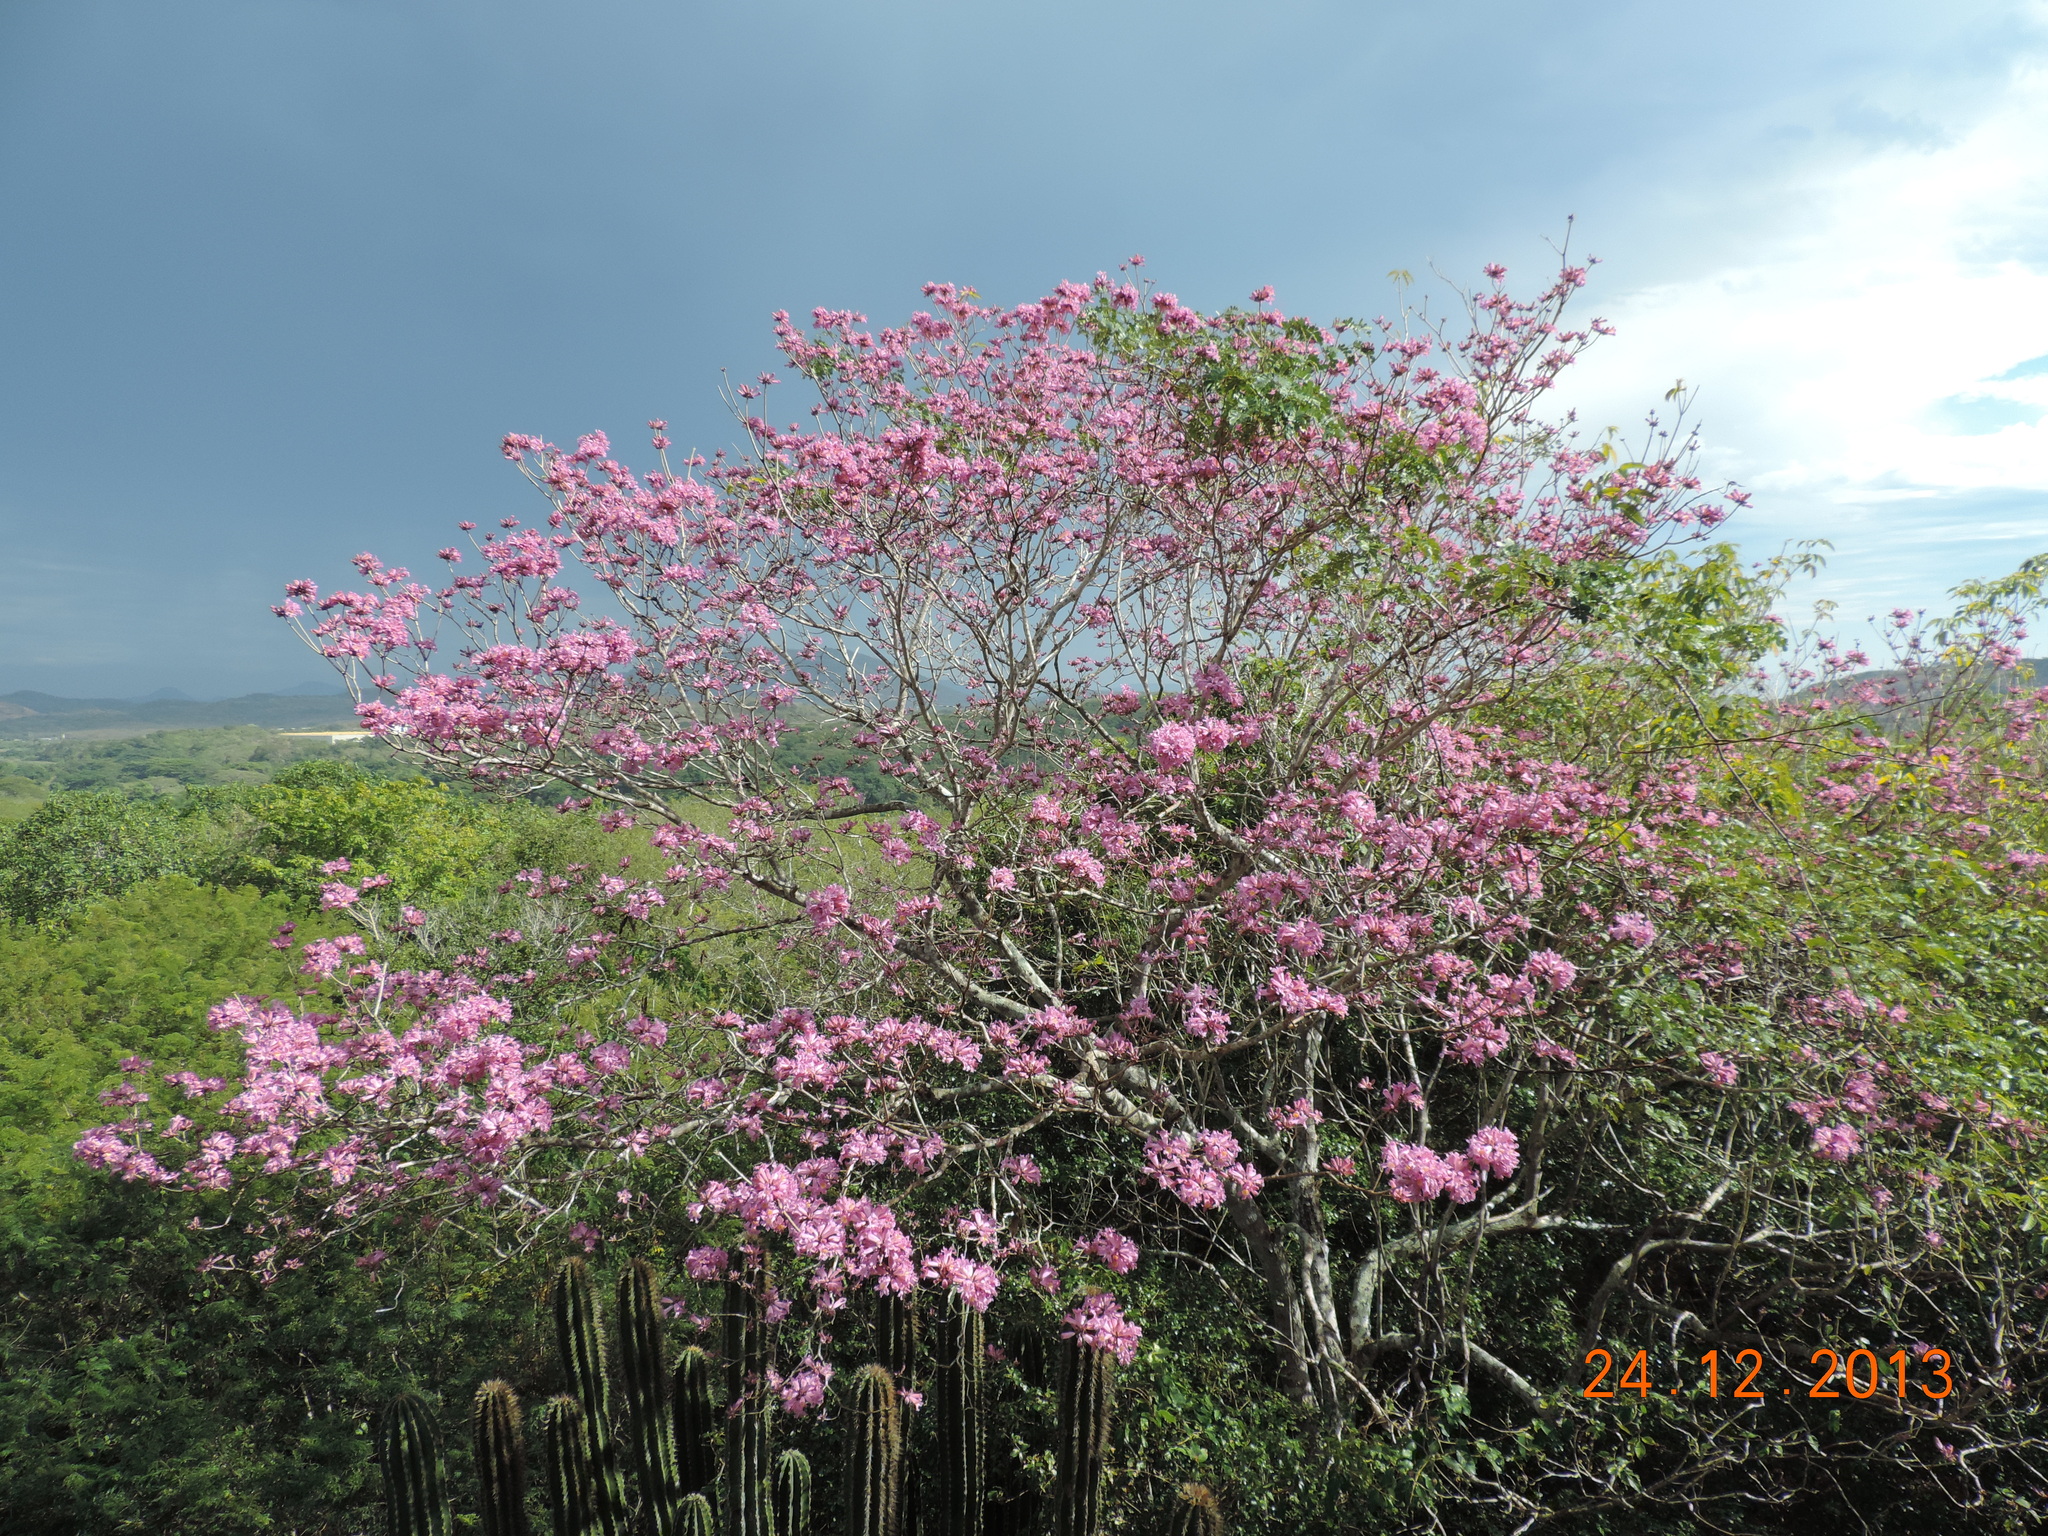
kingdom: Plantae
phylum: Tracheophyta
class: Magnoliopsida
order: Lamiales
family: Bignoniaceae
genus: Handroanthus
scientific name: Handroanthus impetiginosum
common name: Pink trumpet tree
